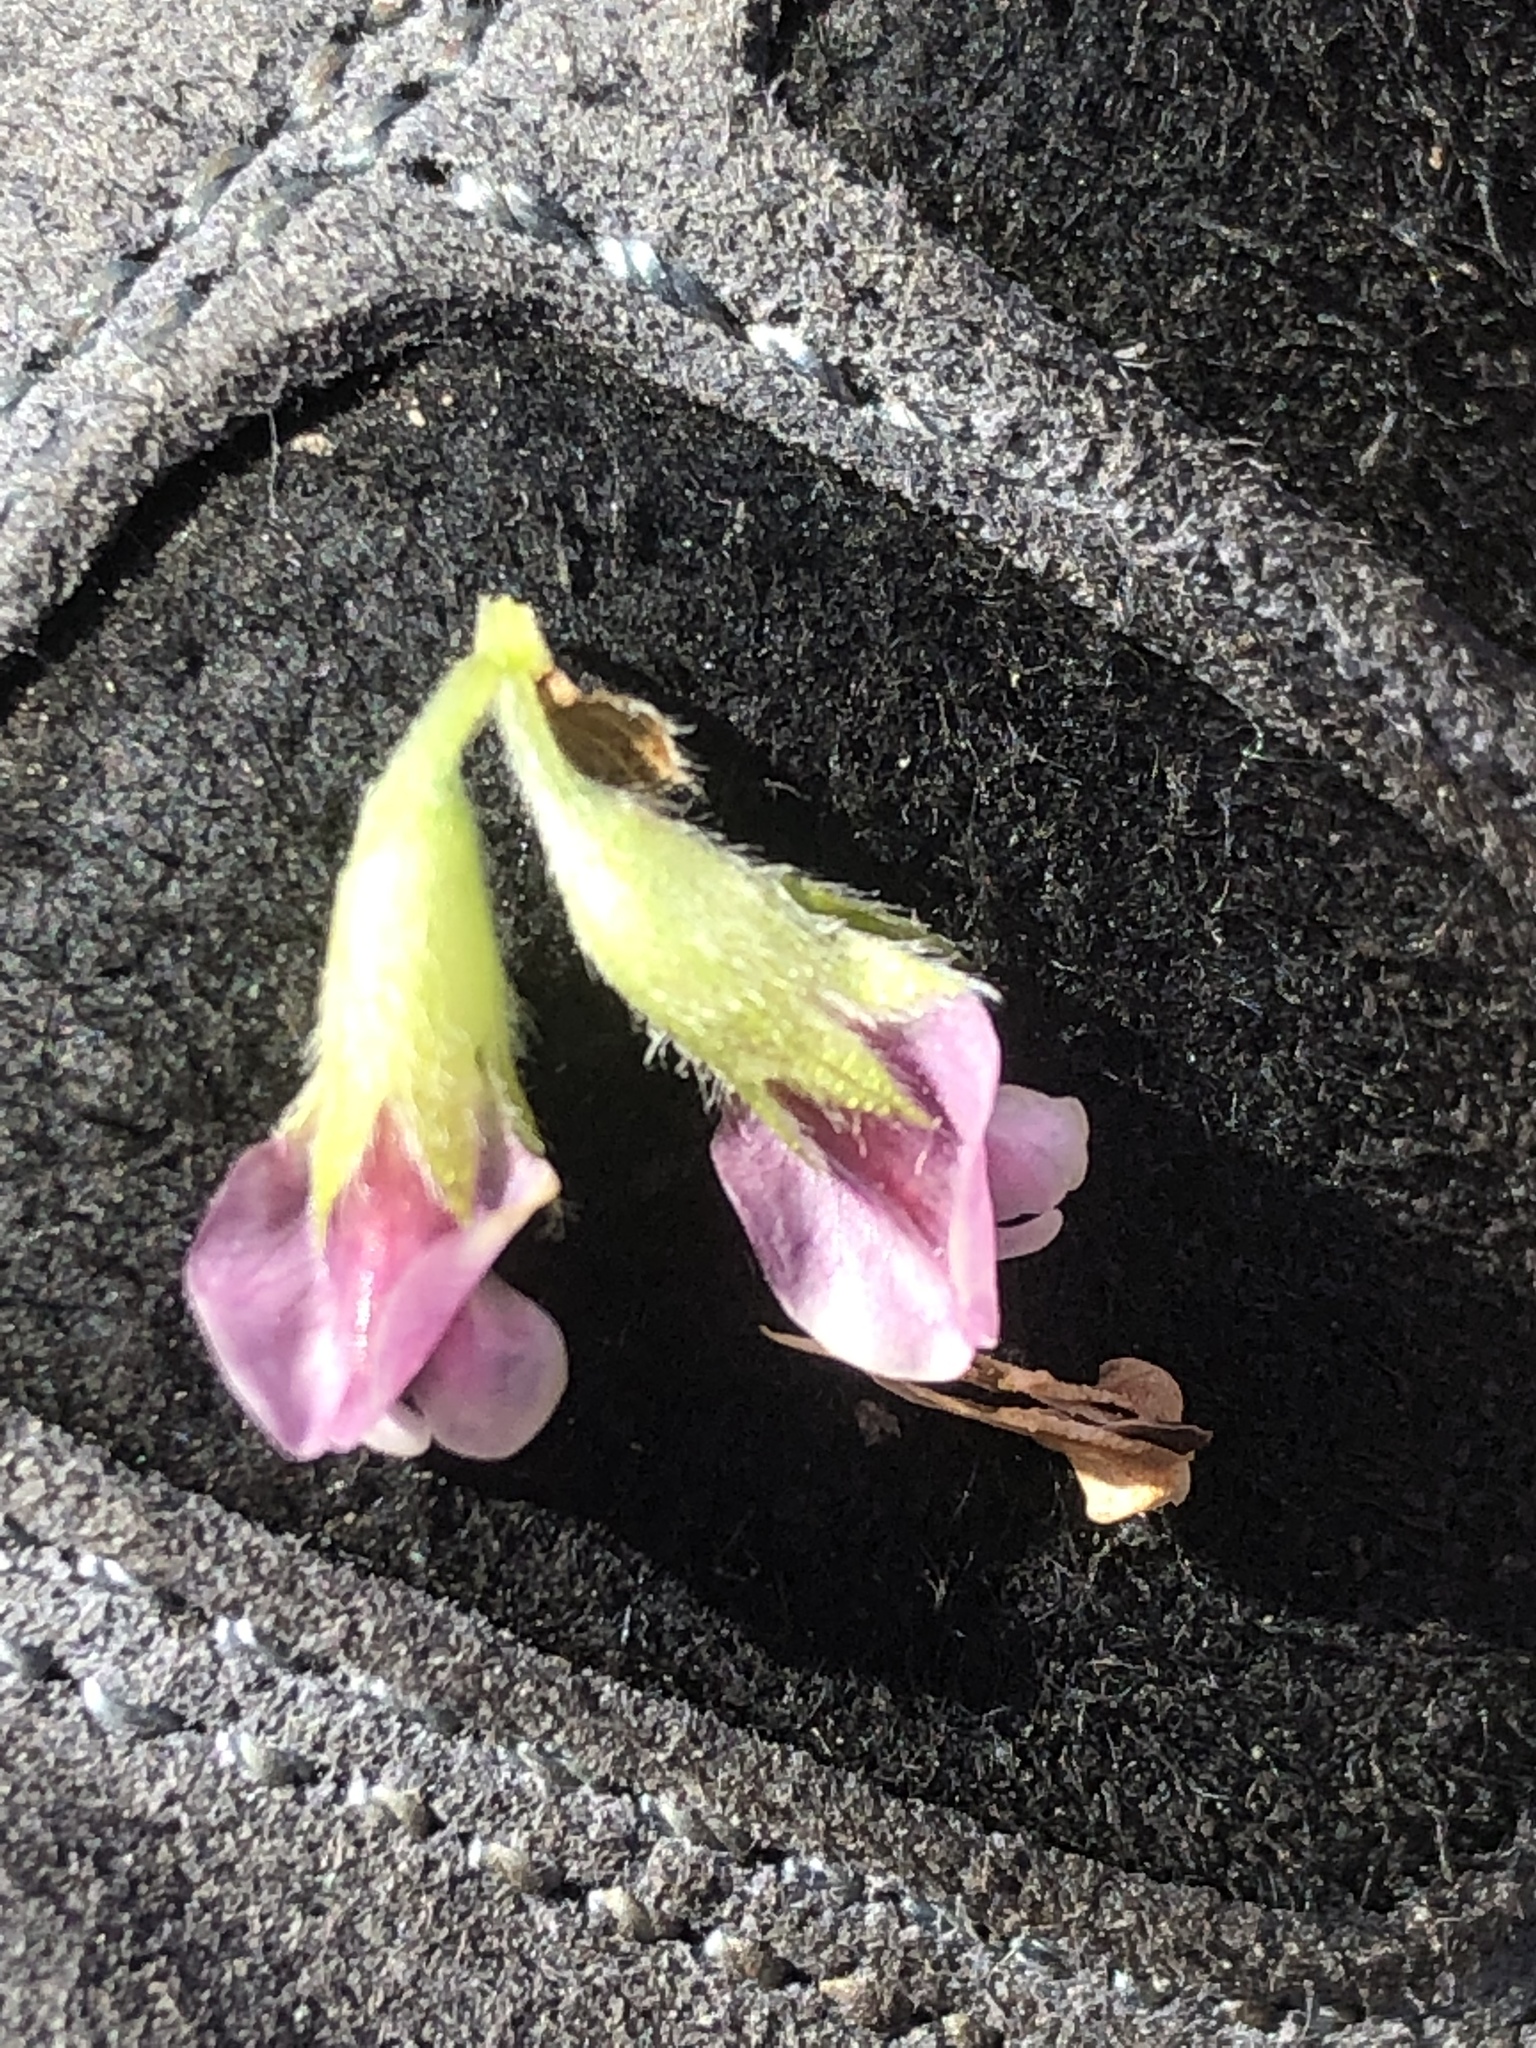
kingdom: Plantae
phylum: Tracheophyta
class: Magnoliopsida
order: Fabales
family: Fabaceae
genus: Psoralea
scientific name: Psoralea stachyera
